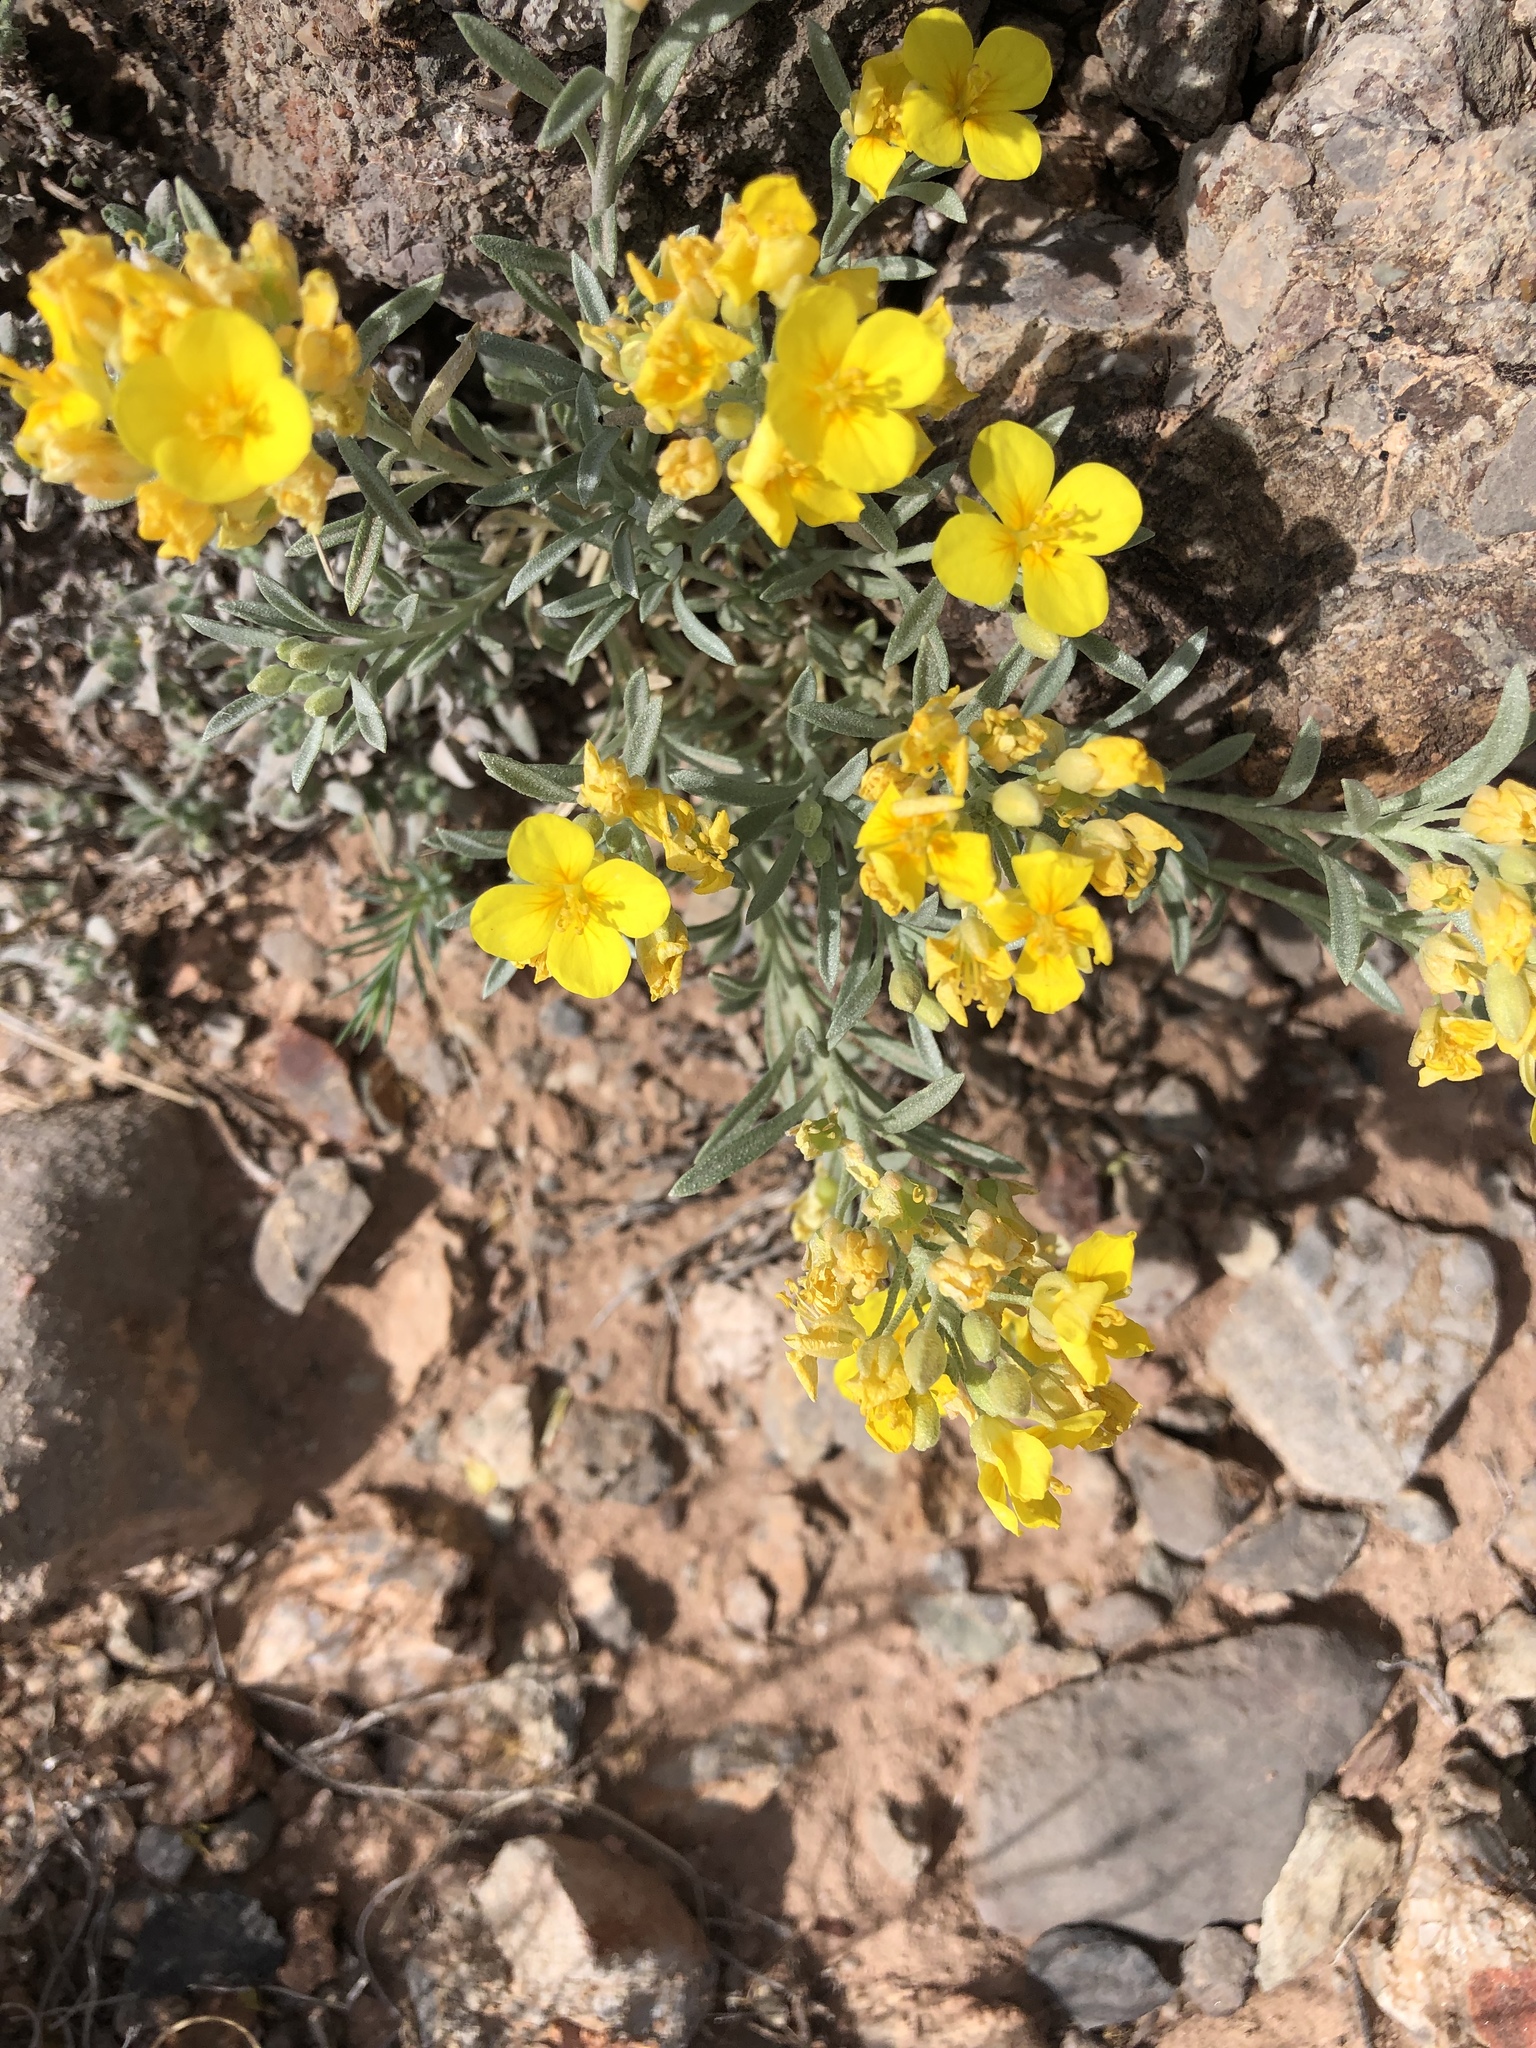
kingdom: Plantae
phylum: Tracheophyta
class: Magnoliopsida
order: Brassicales
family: Brassicaceae
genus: Physaria
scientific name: Physaria fendleri
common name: Fendler's bladderpod
